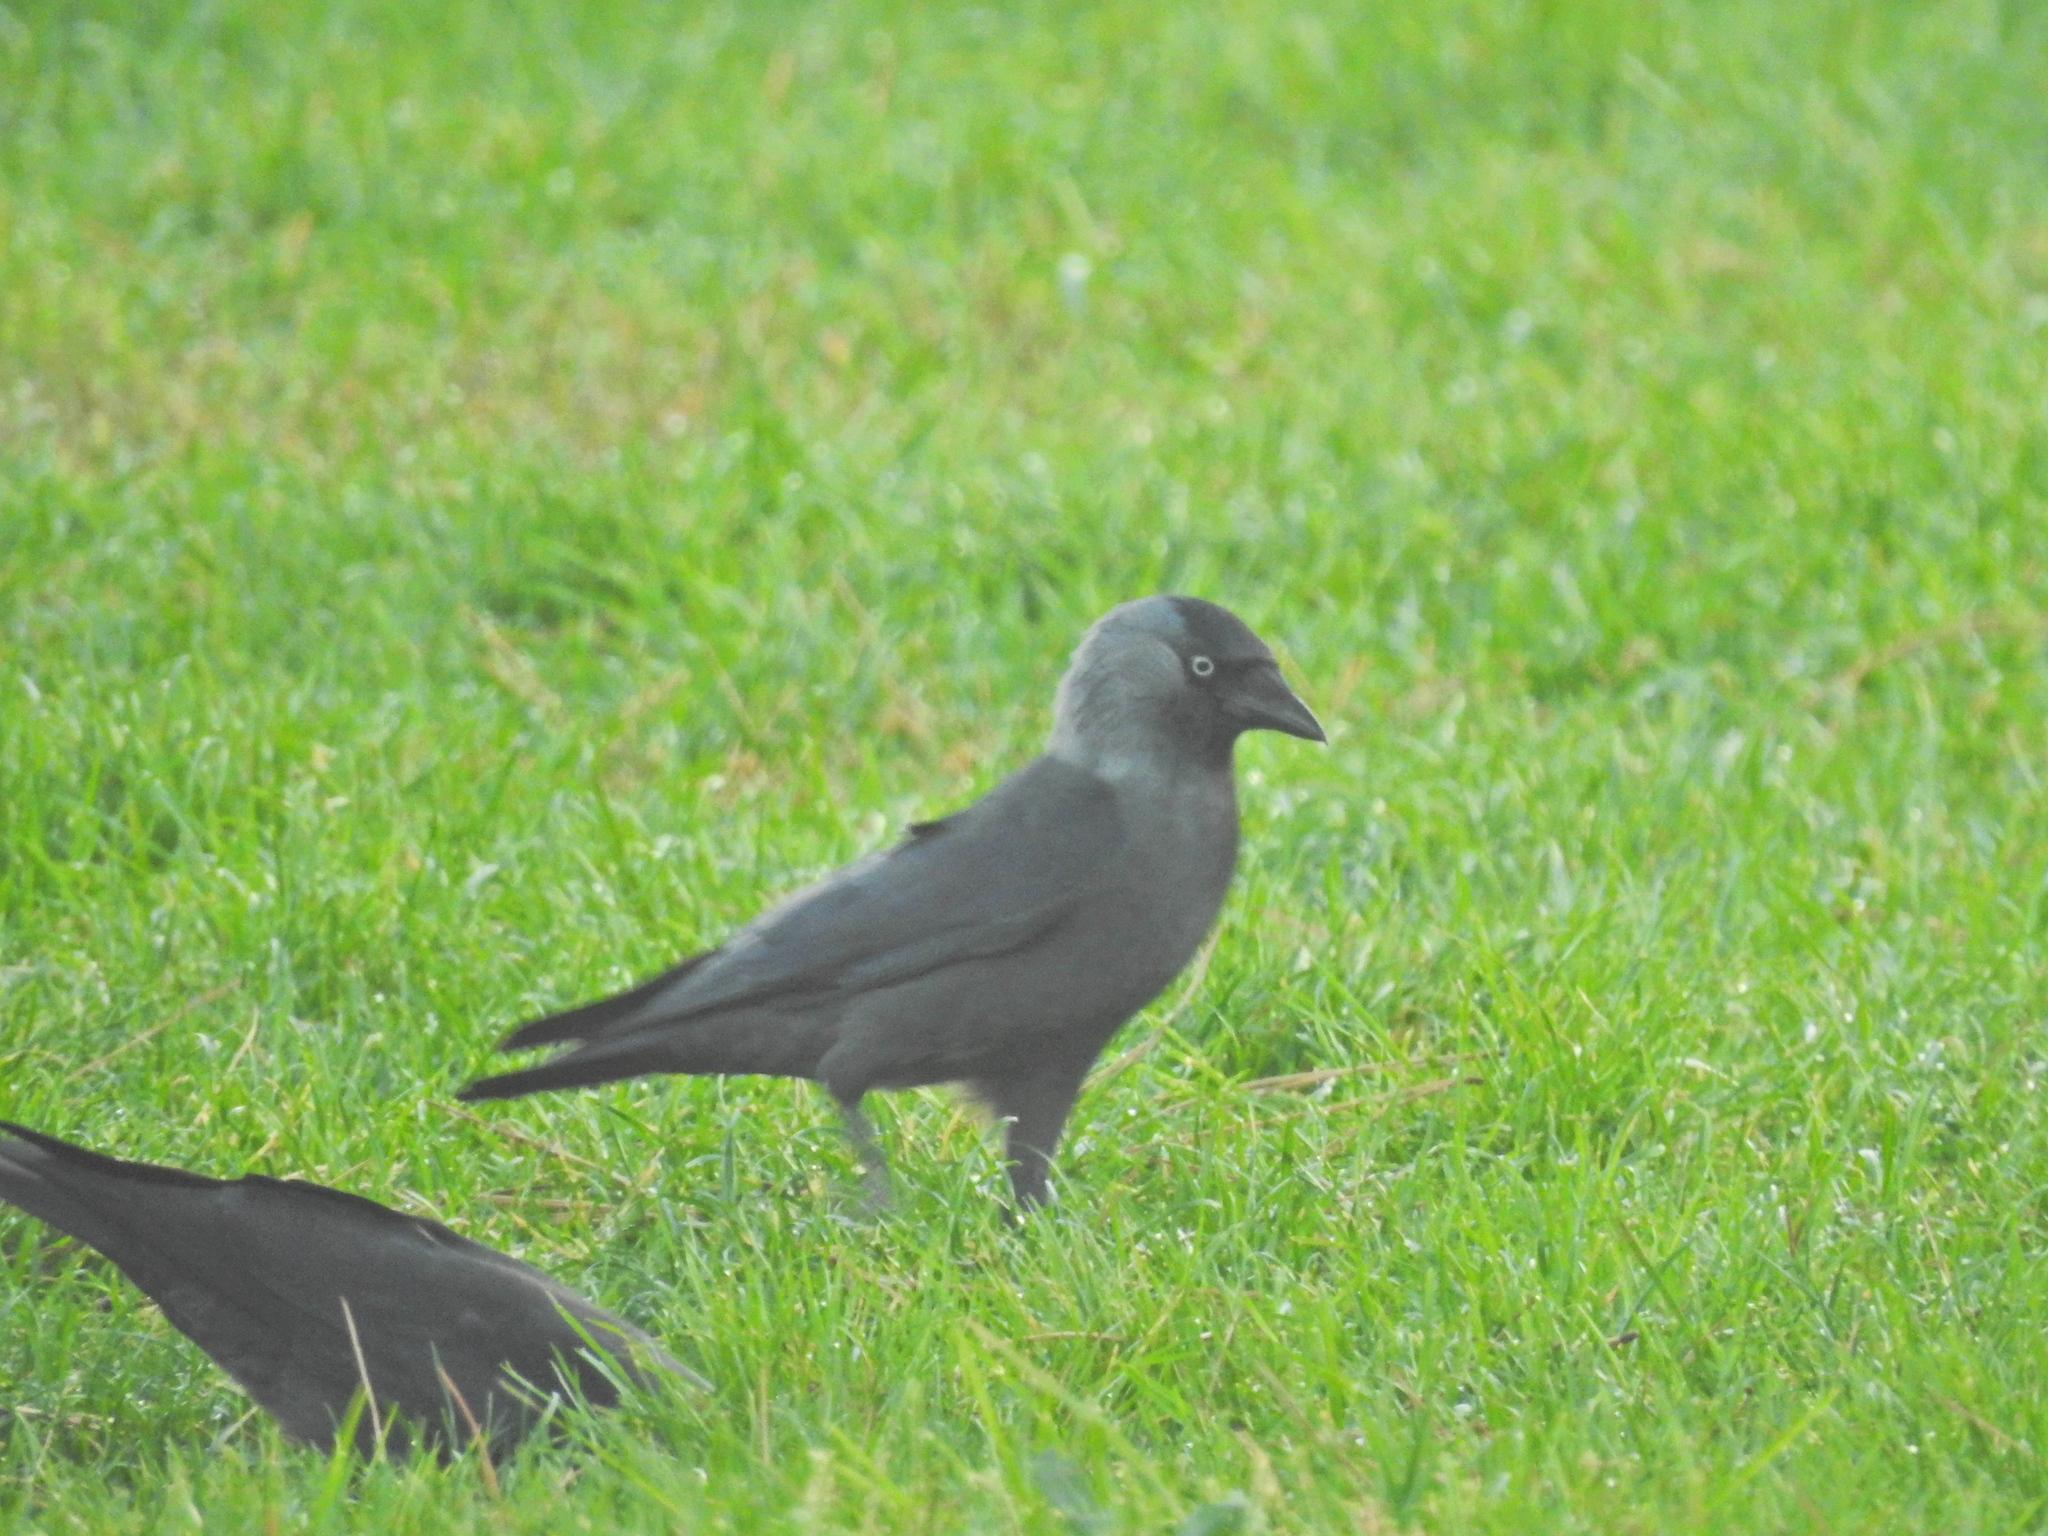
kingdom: Animalia
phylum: Chordata
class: Aves
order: Passeriformes
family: Corvidae
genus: Coloeus
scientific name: Coloeus monedula
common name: Western jackdaw
